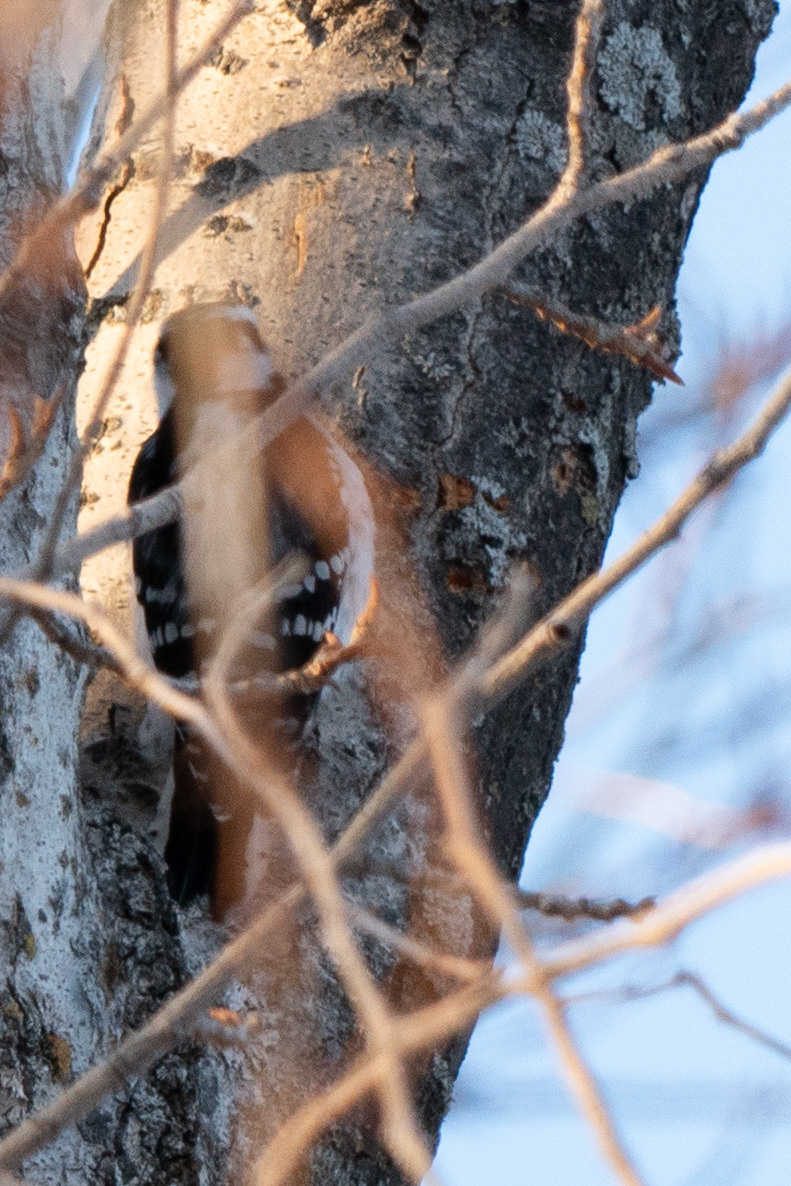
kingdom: Animalia
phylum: Chordata
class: Aves
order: Piciformes
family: Picidae
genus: Dryobates
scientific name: Dryobates pubescens
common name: Downy woodpecker
